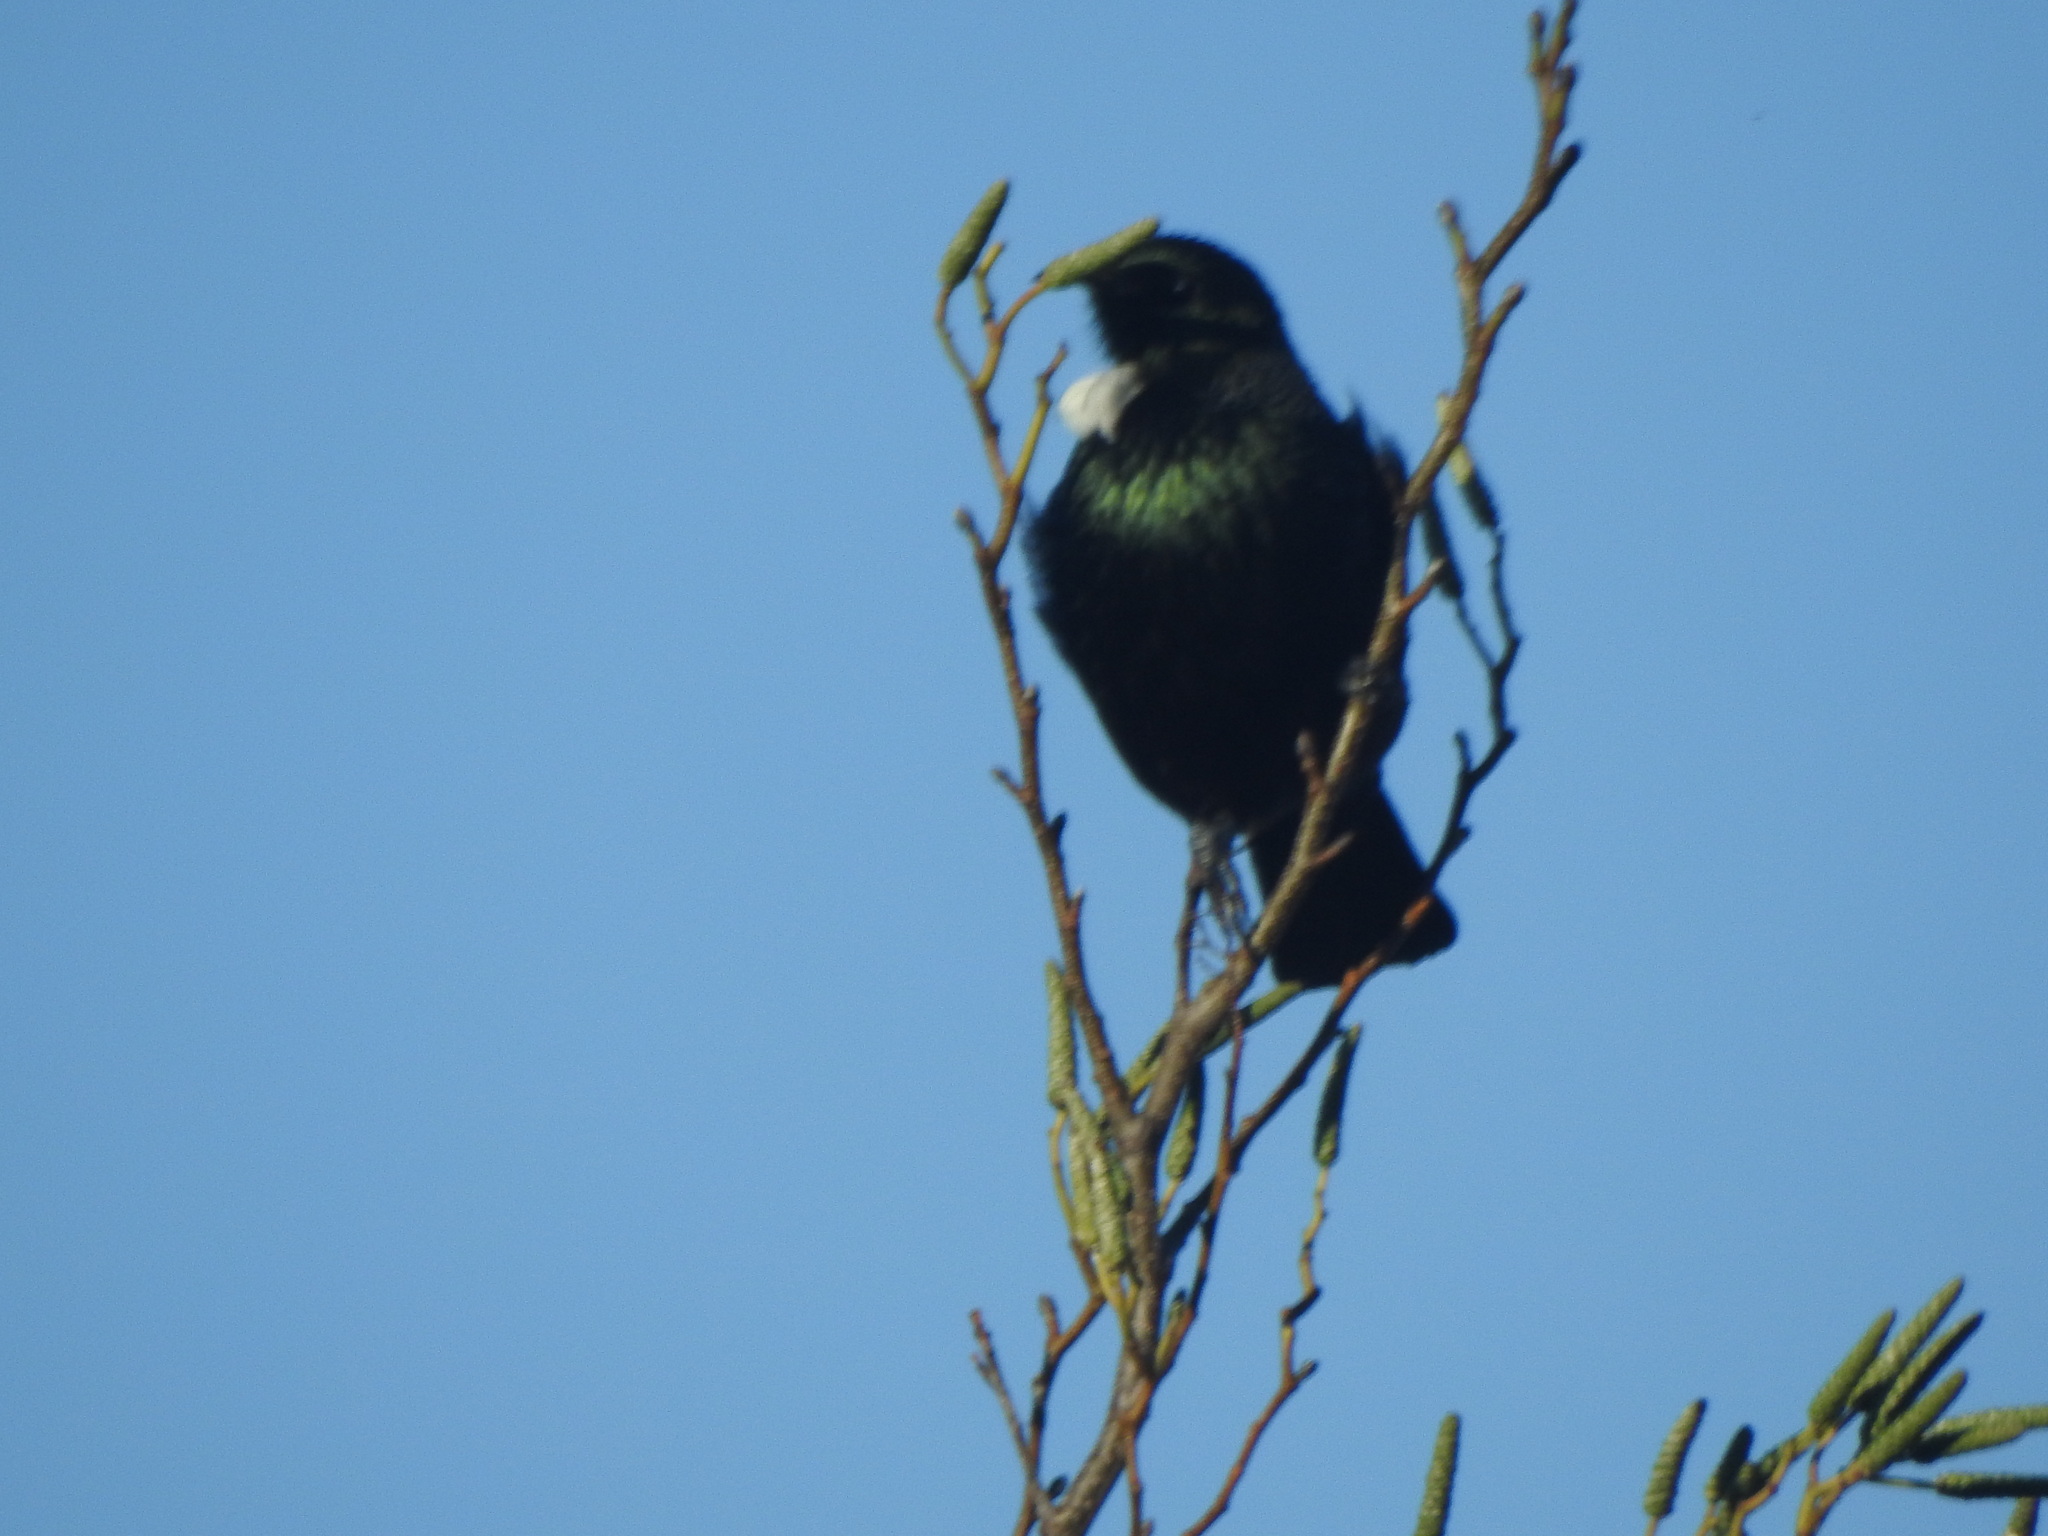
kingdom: Animalia
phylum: Chordata
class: Aves
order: Passeriformes
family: Meliphagidae
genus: Prosthemadera
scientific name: Prosthemadera novaeseelandiae
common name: Tui
